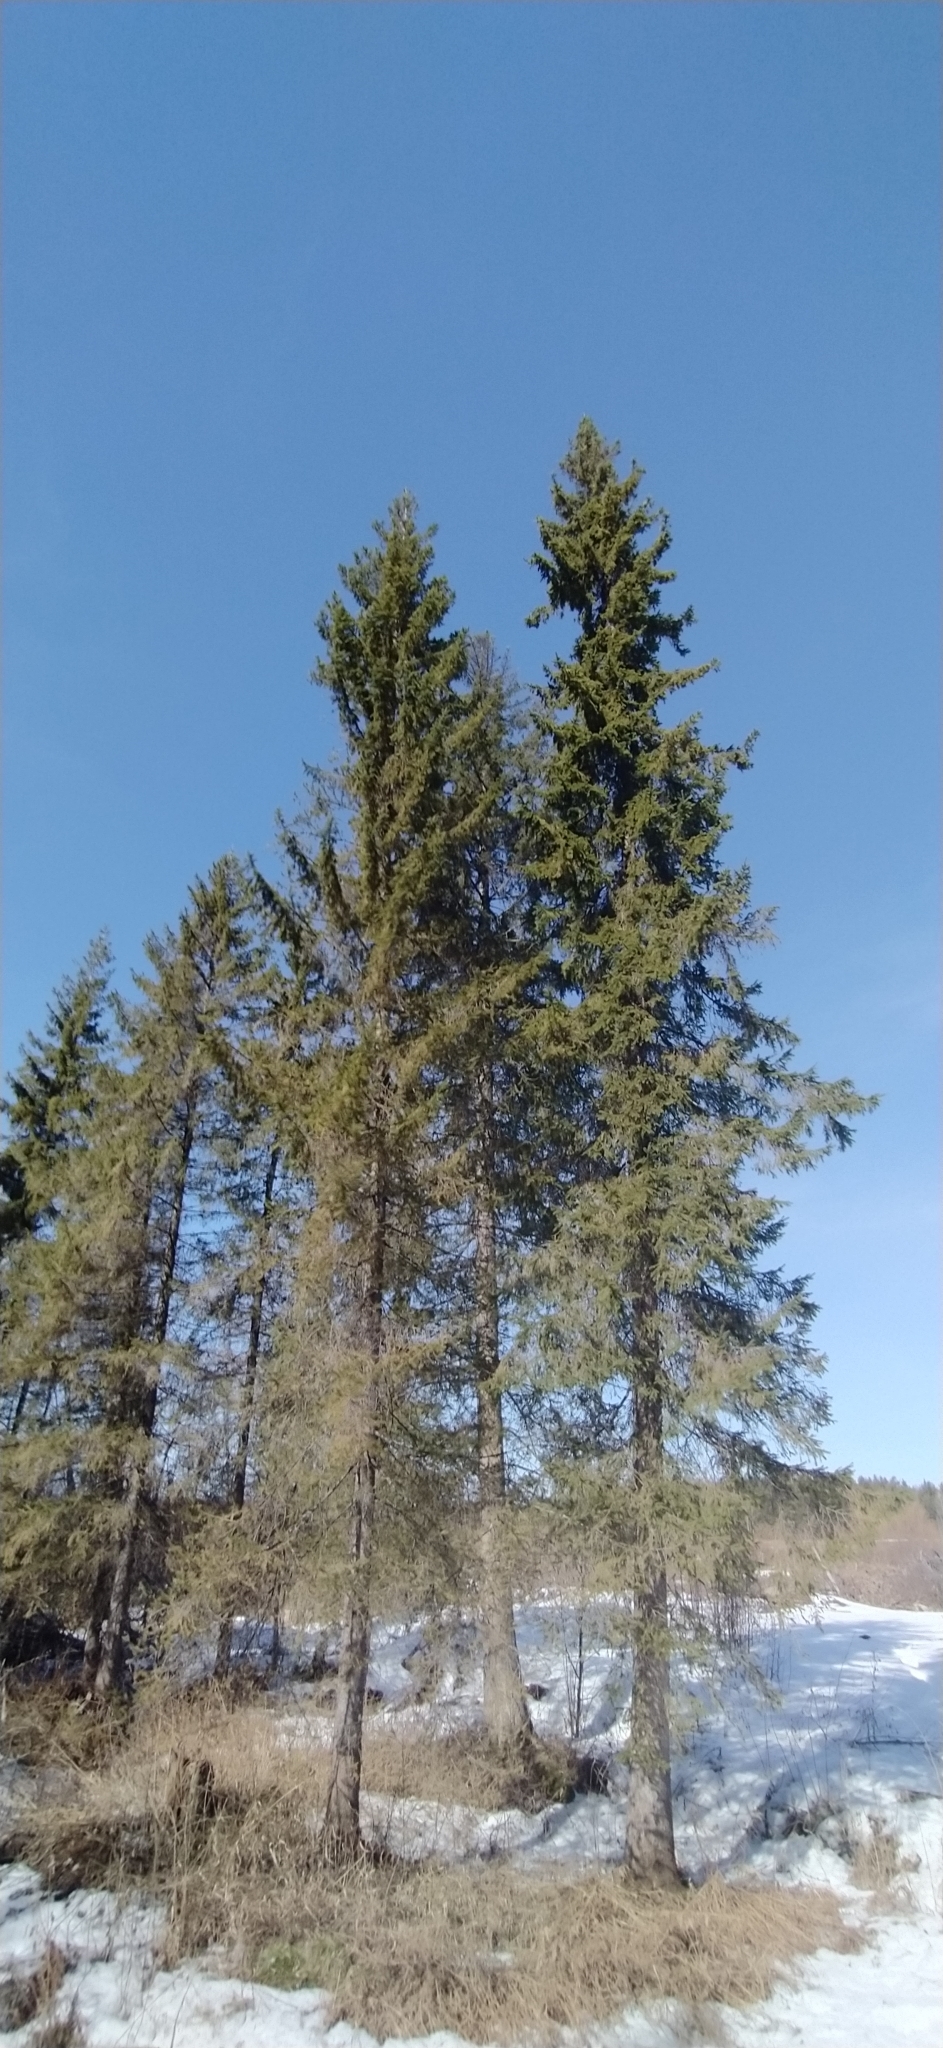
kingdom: Plantae
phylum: Tracheophyta
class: Pinopsida
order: Pinales
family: Pinaceae
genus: Picea
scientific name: Picea obovata
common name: Siberian spruce
